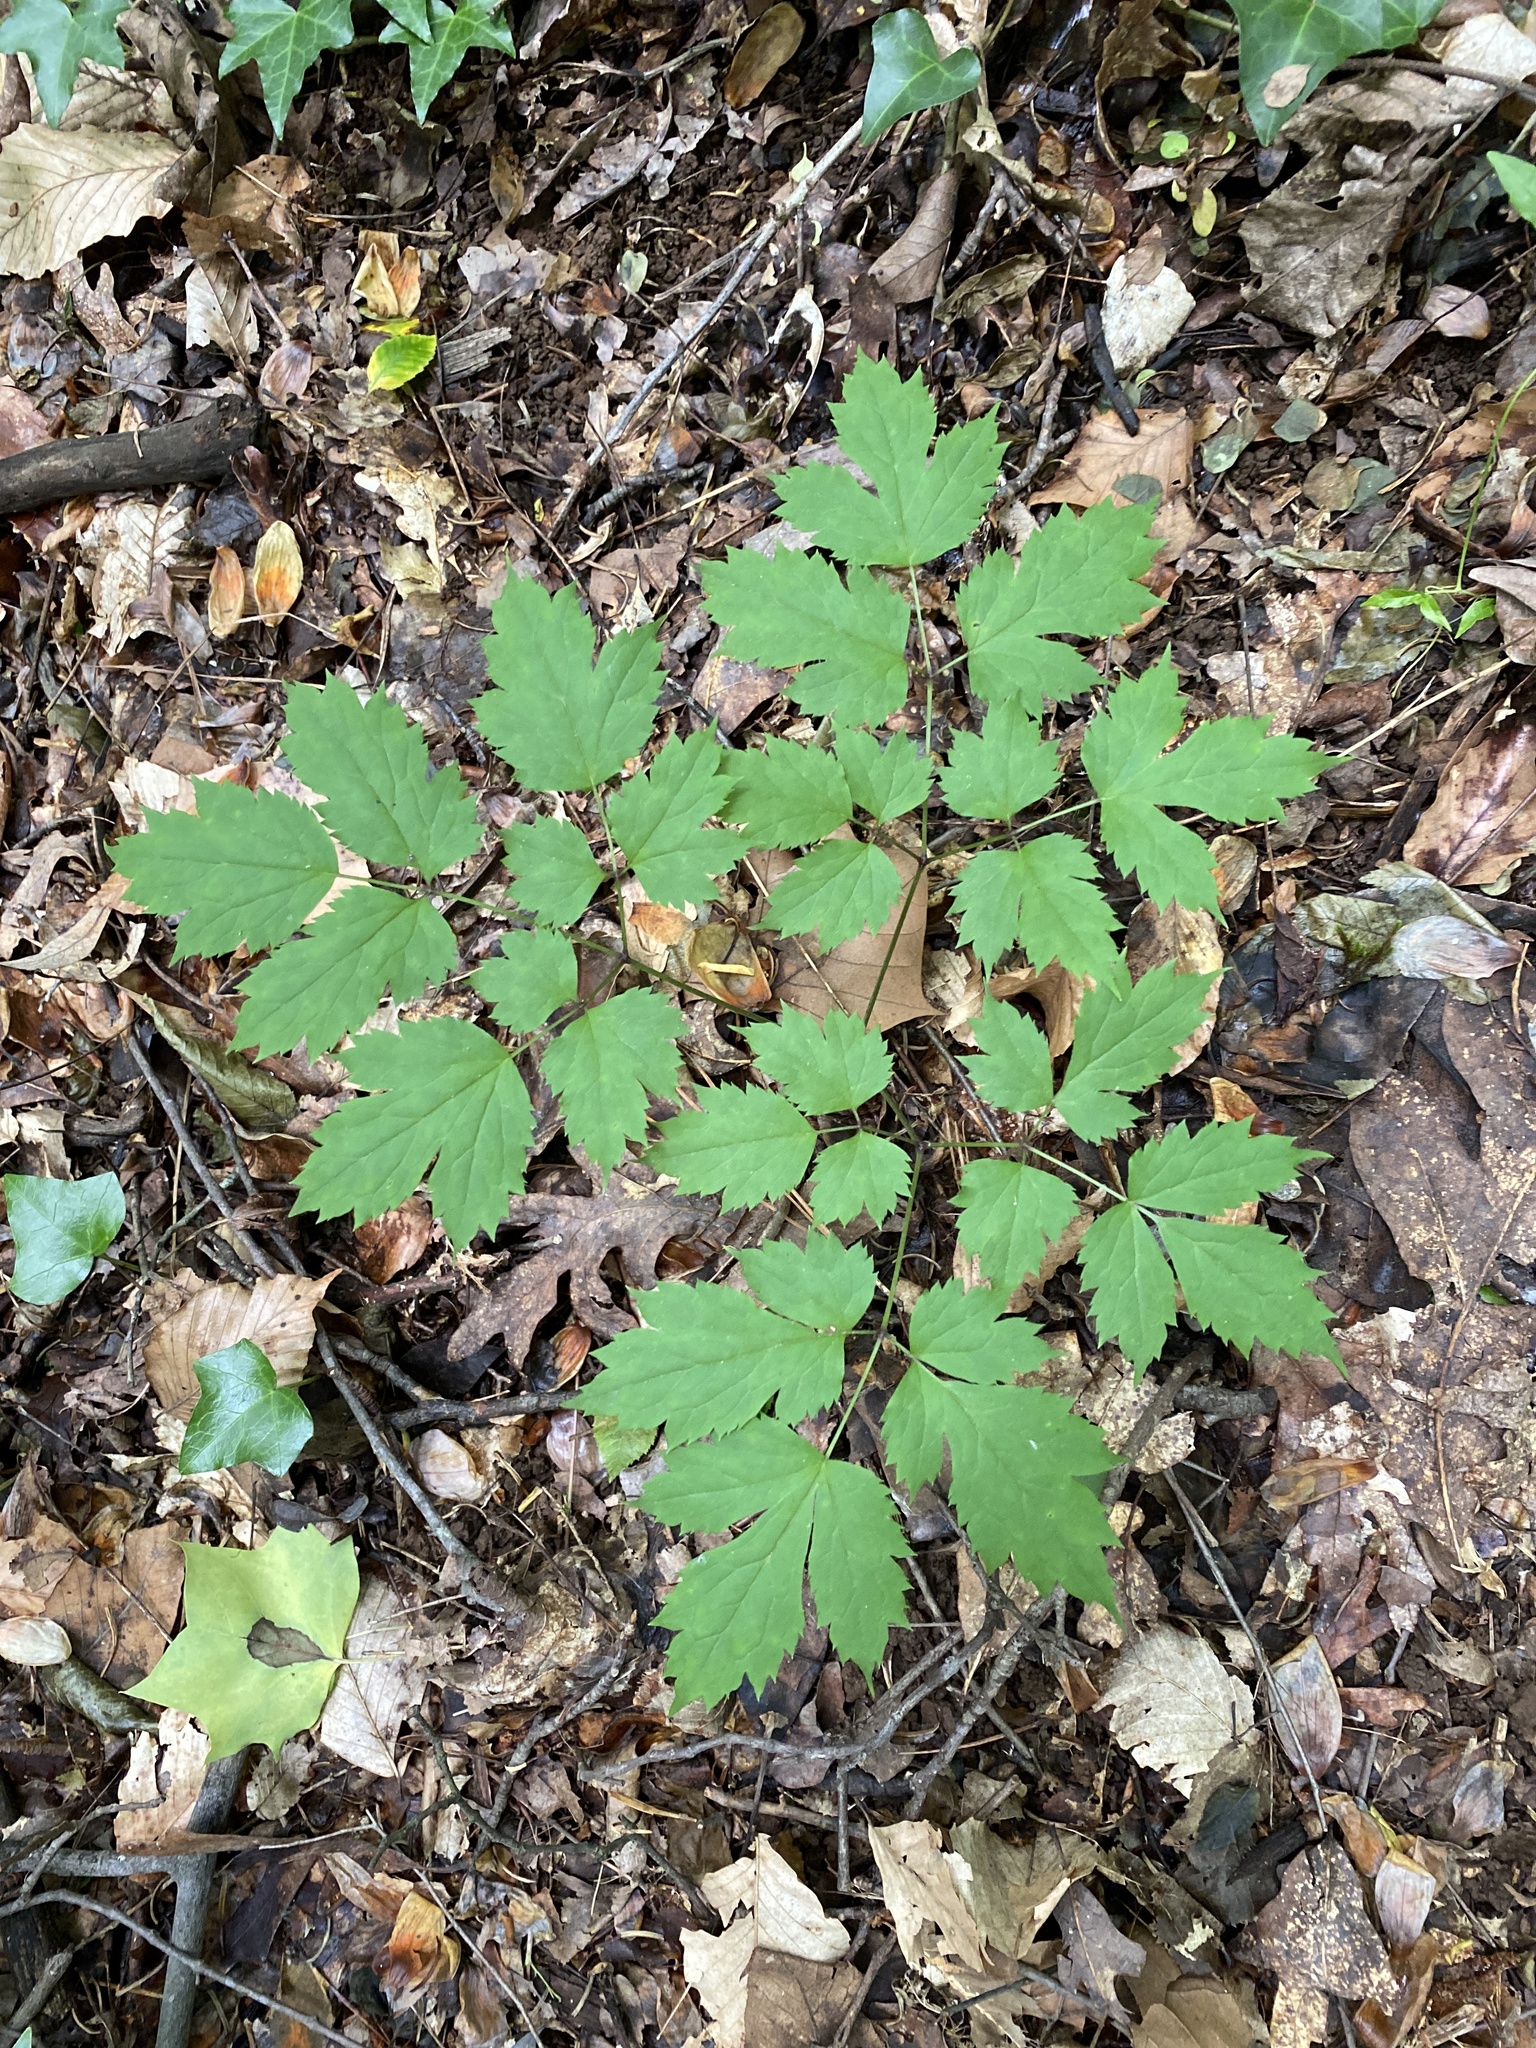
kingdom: Plantae
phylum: Tracheophyta
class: Magnoliopsida
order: Ranunculales
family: Ranunculaceae
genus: Actaea
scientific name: Actaea pachypoda
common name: Doll's-eyes
